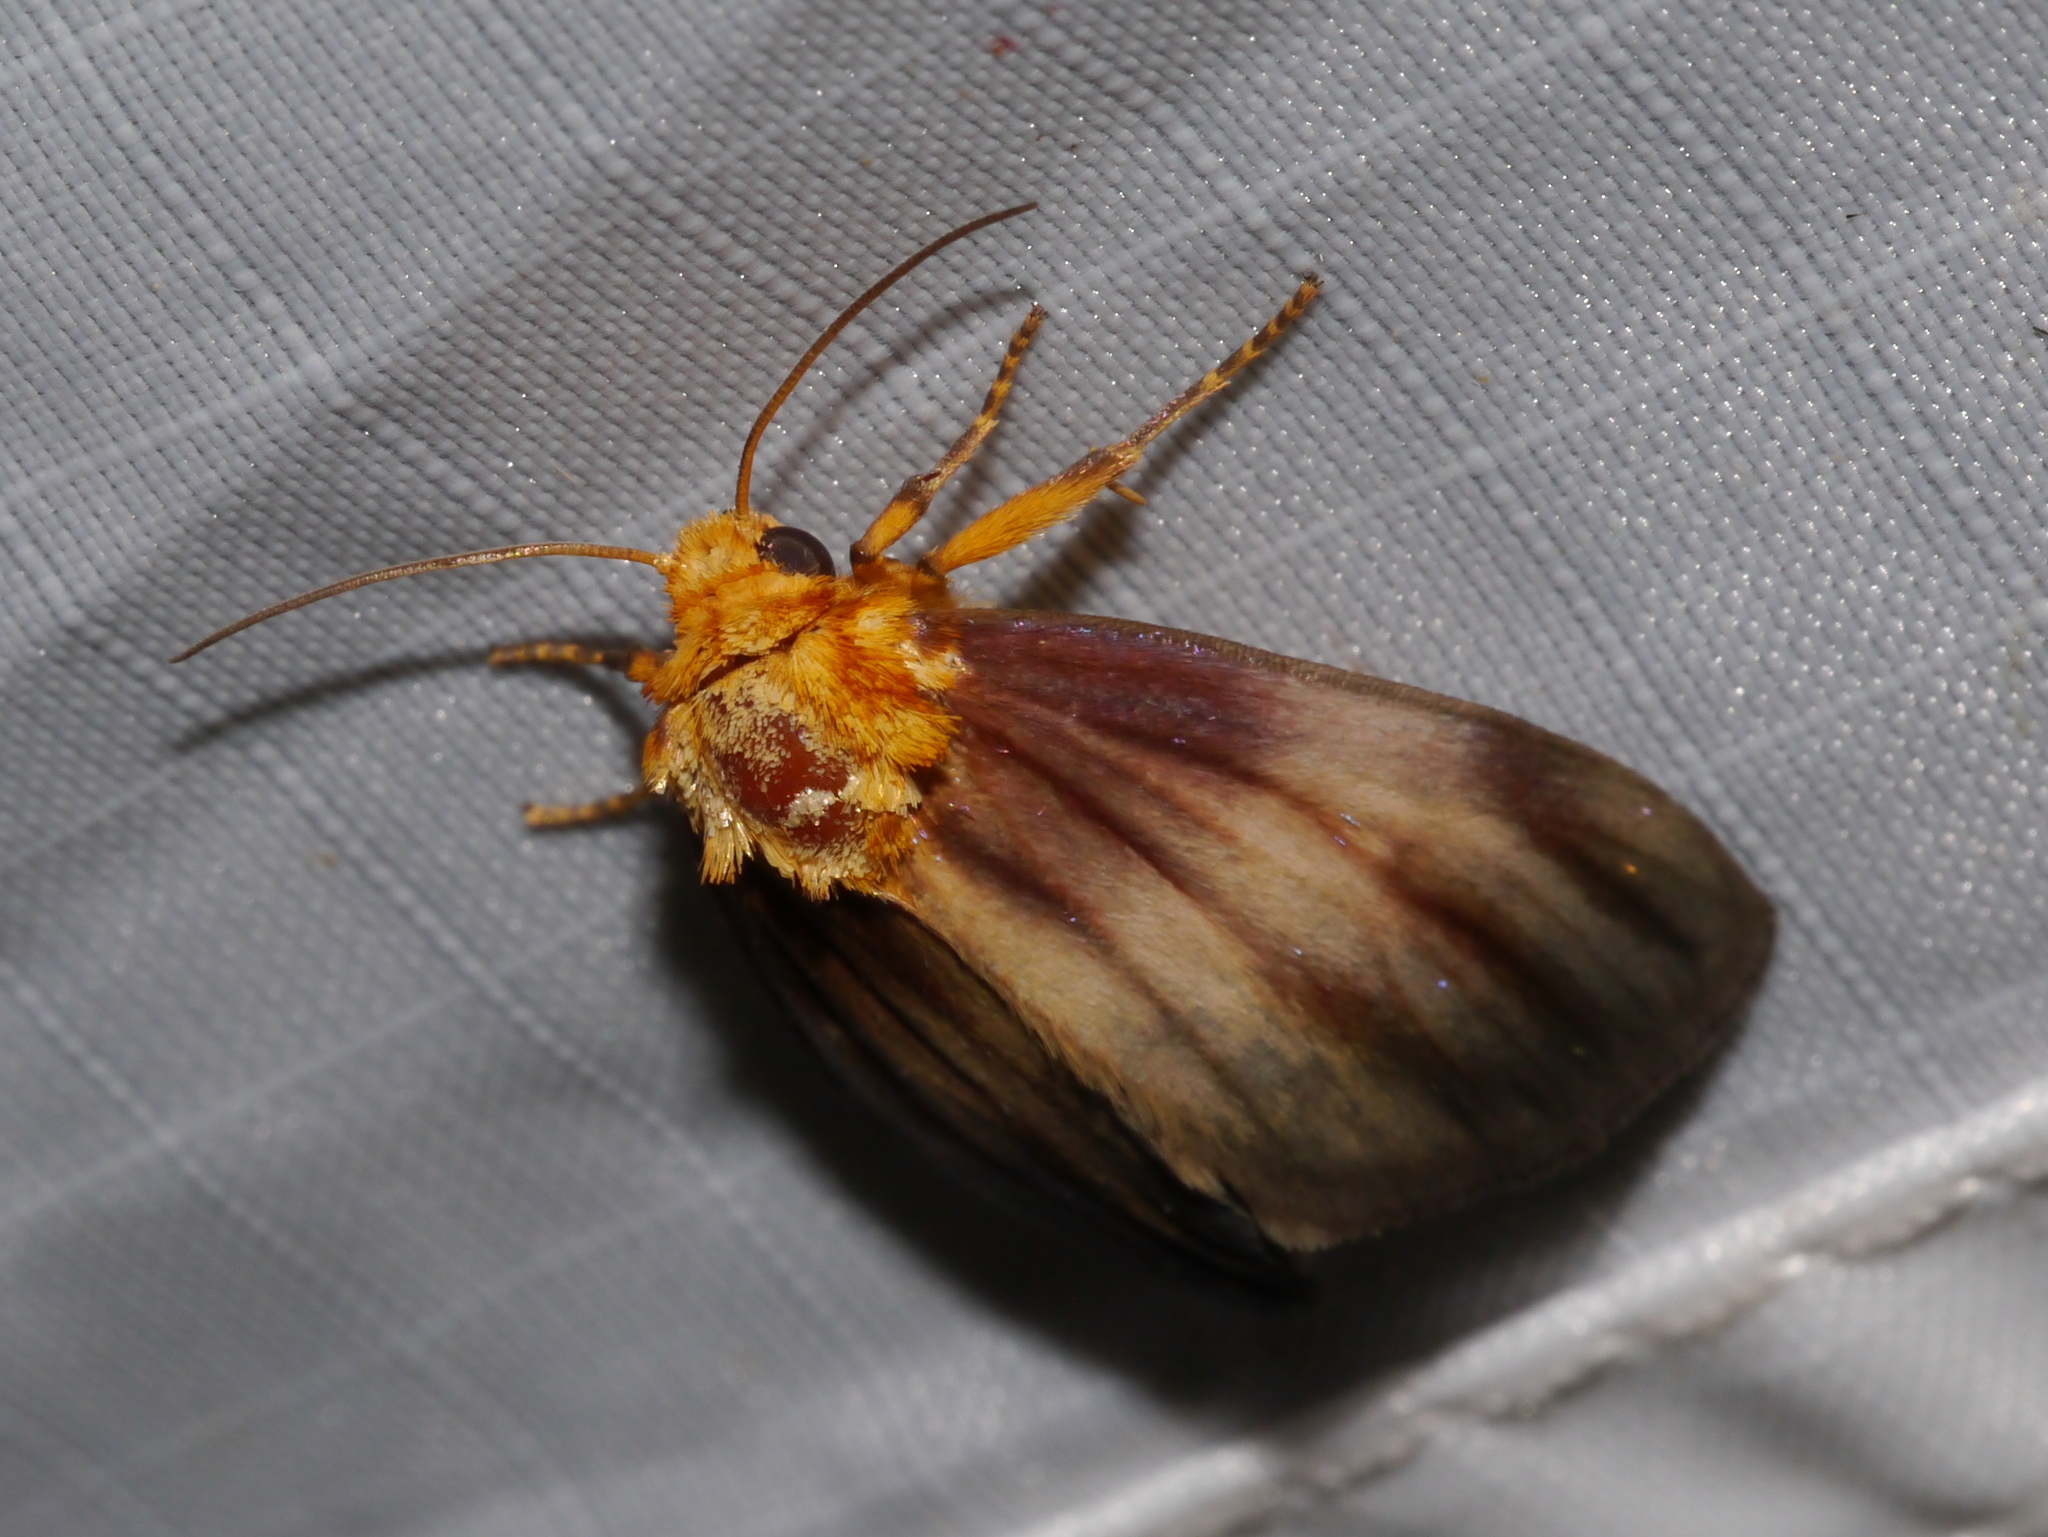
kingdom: Animalia
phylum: Arthropoda
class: Insecta
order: Lepidoptera
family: Noctuidae
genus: Antaplaga
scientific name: Antaplaga plesioglauca
